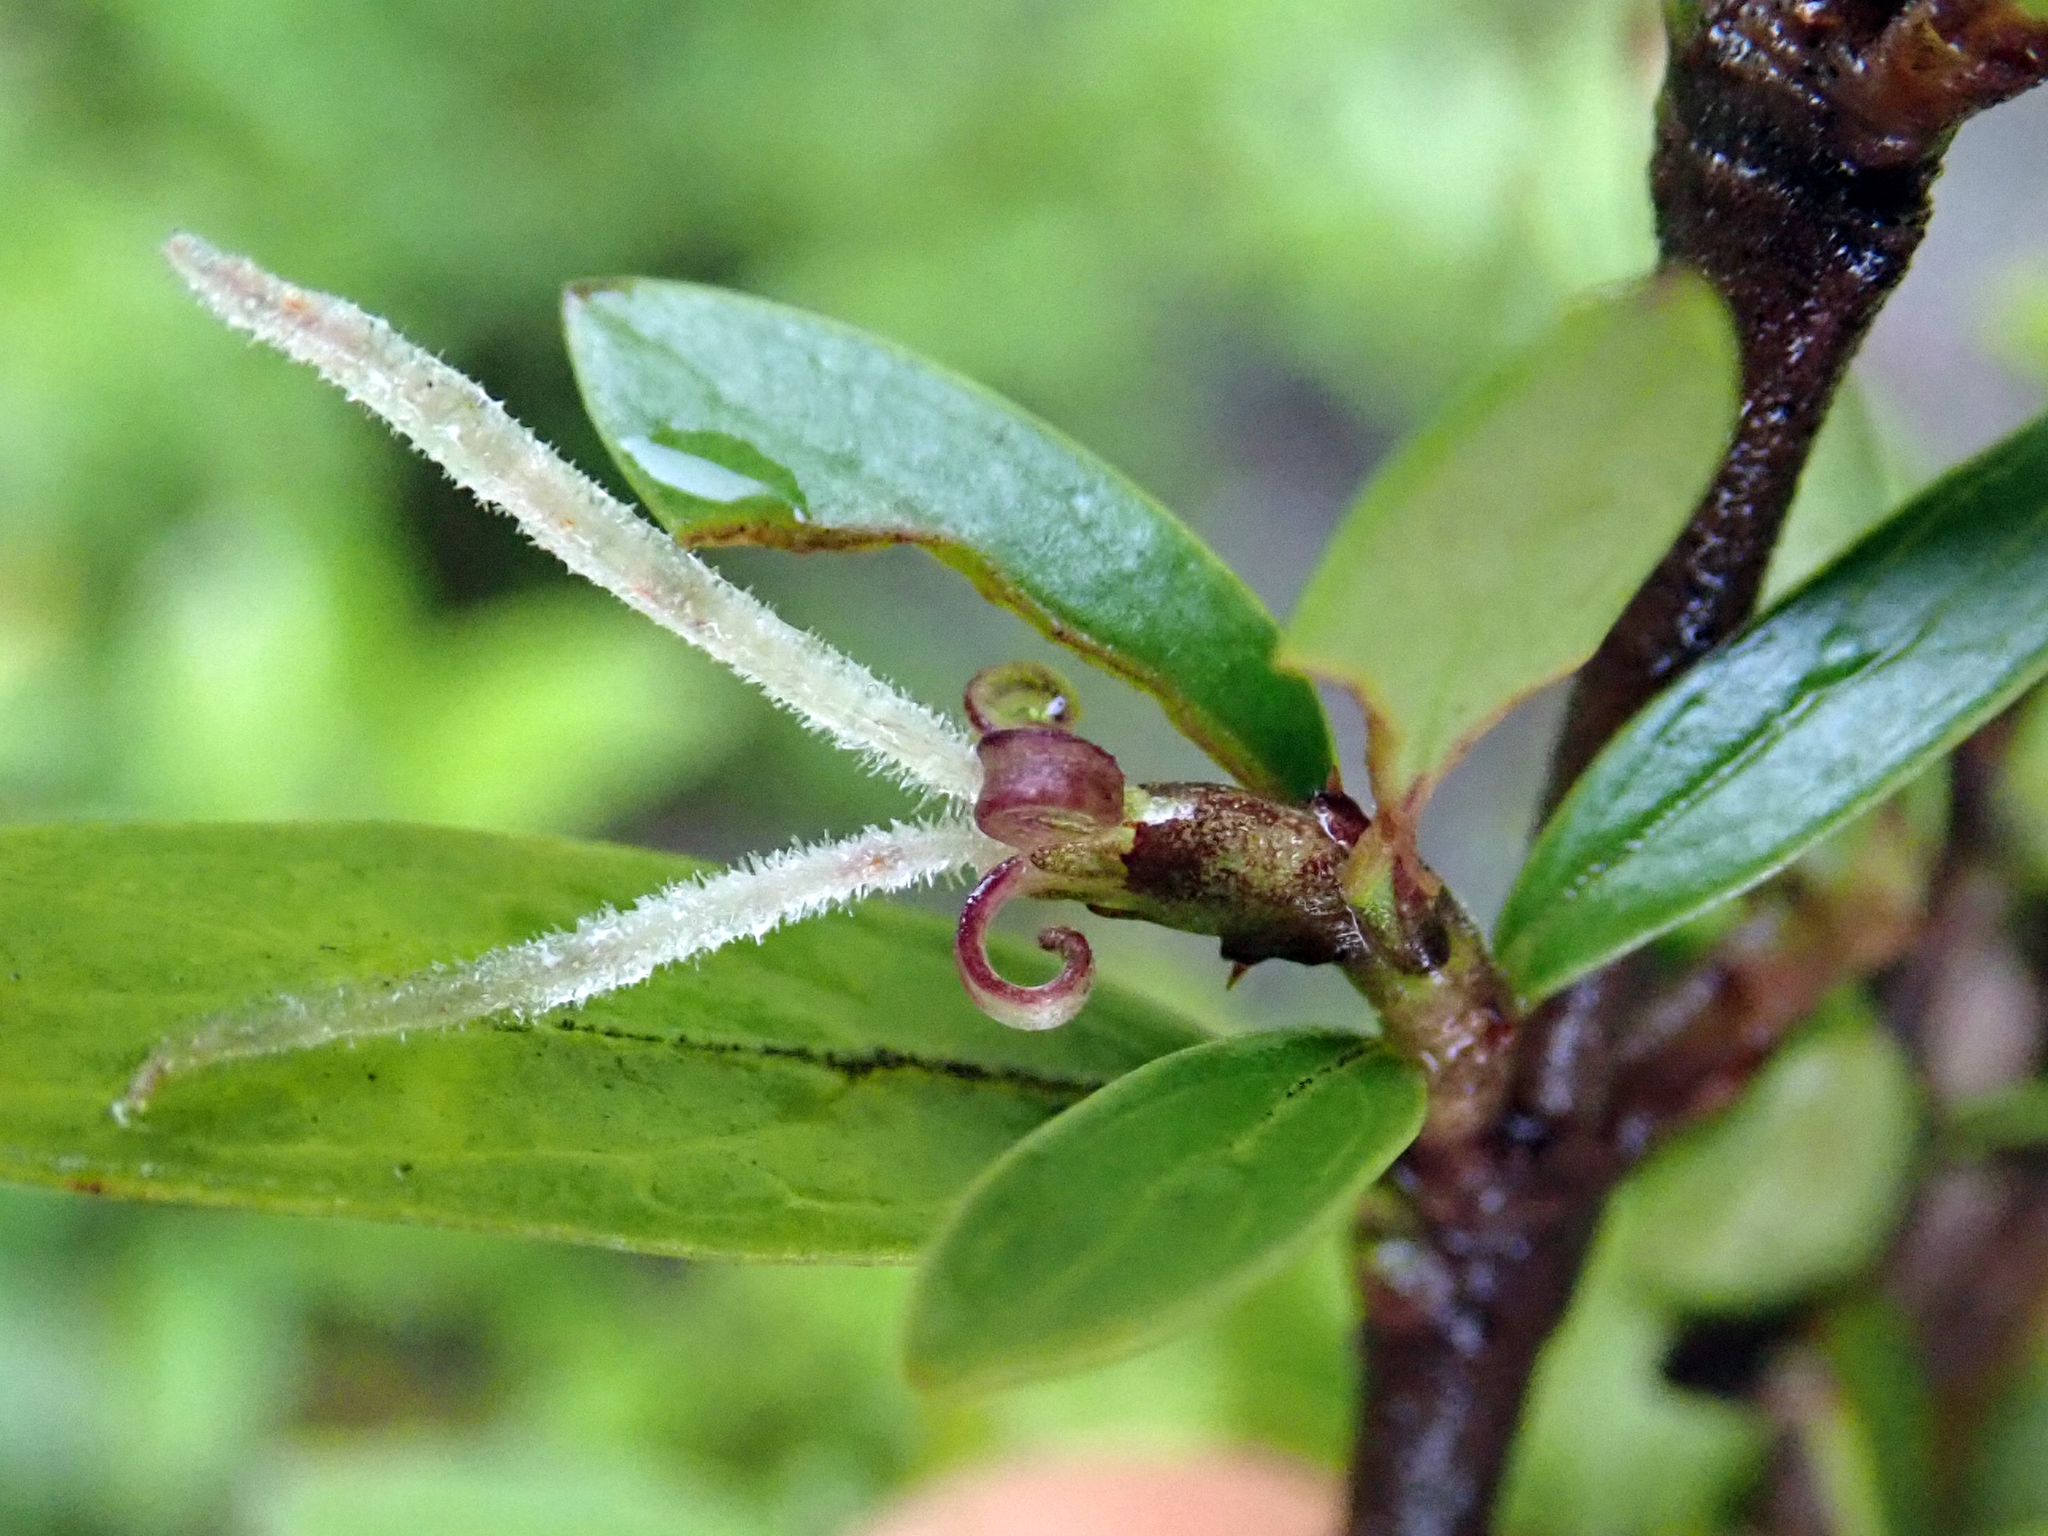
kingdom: Plantae
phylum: Tracheophyta
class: Magnoliopsida
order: Gentianales
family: Rubiaceae
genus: Coprosma
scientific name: Coprosma propinqua
